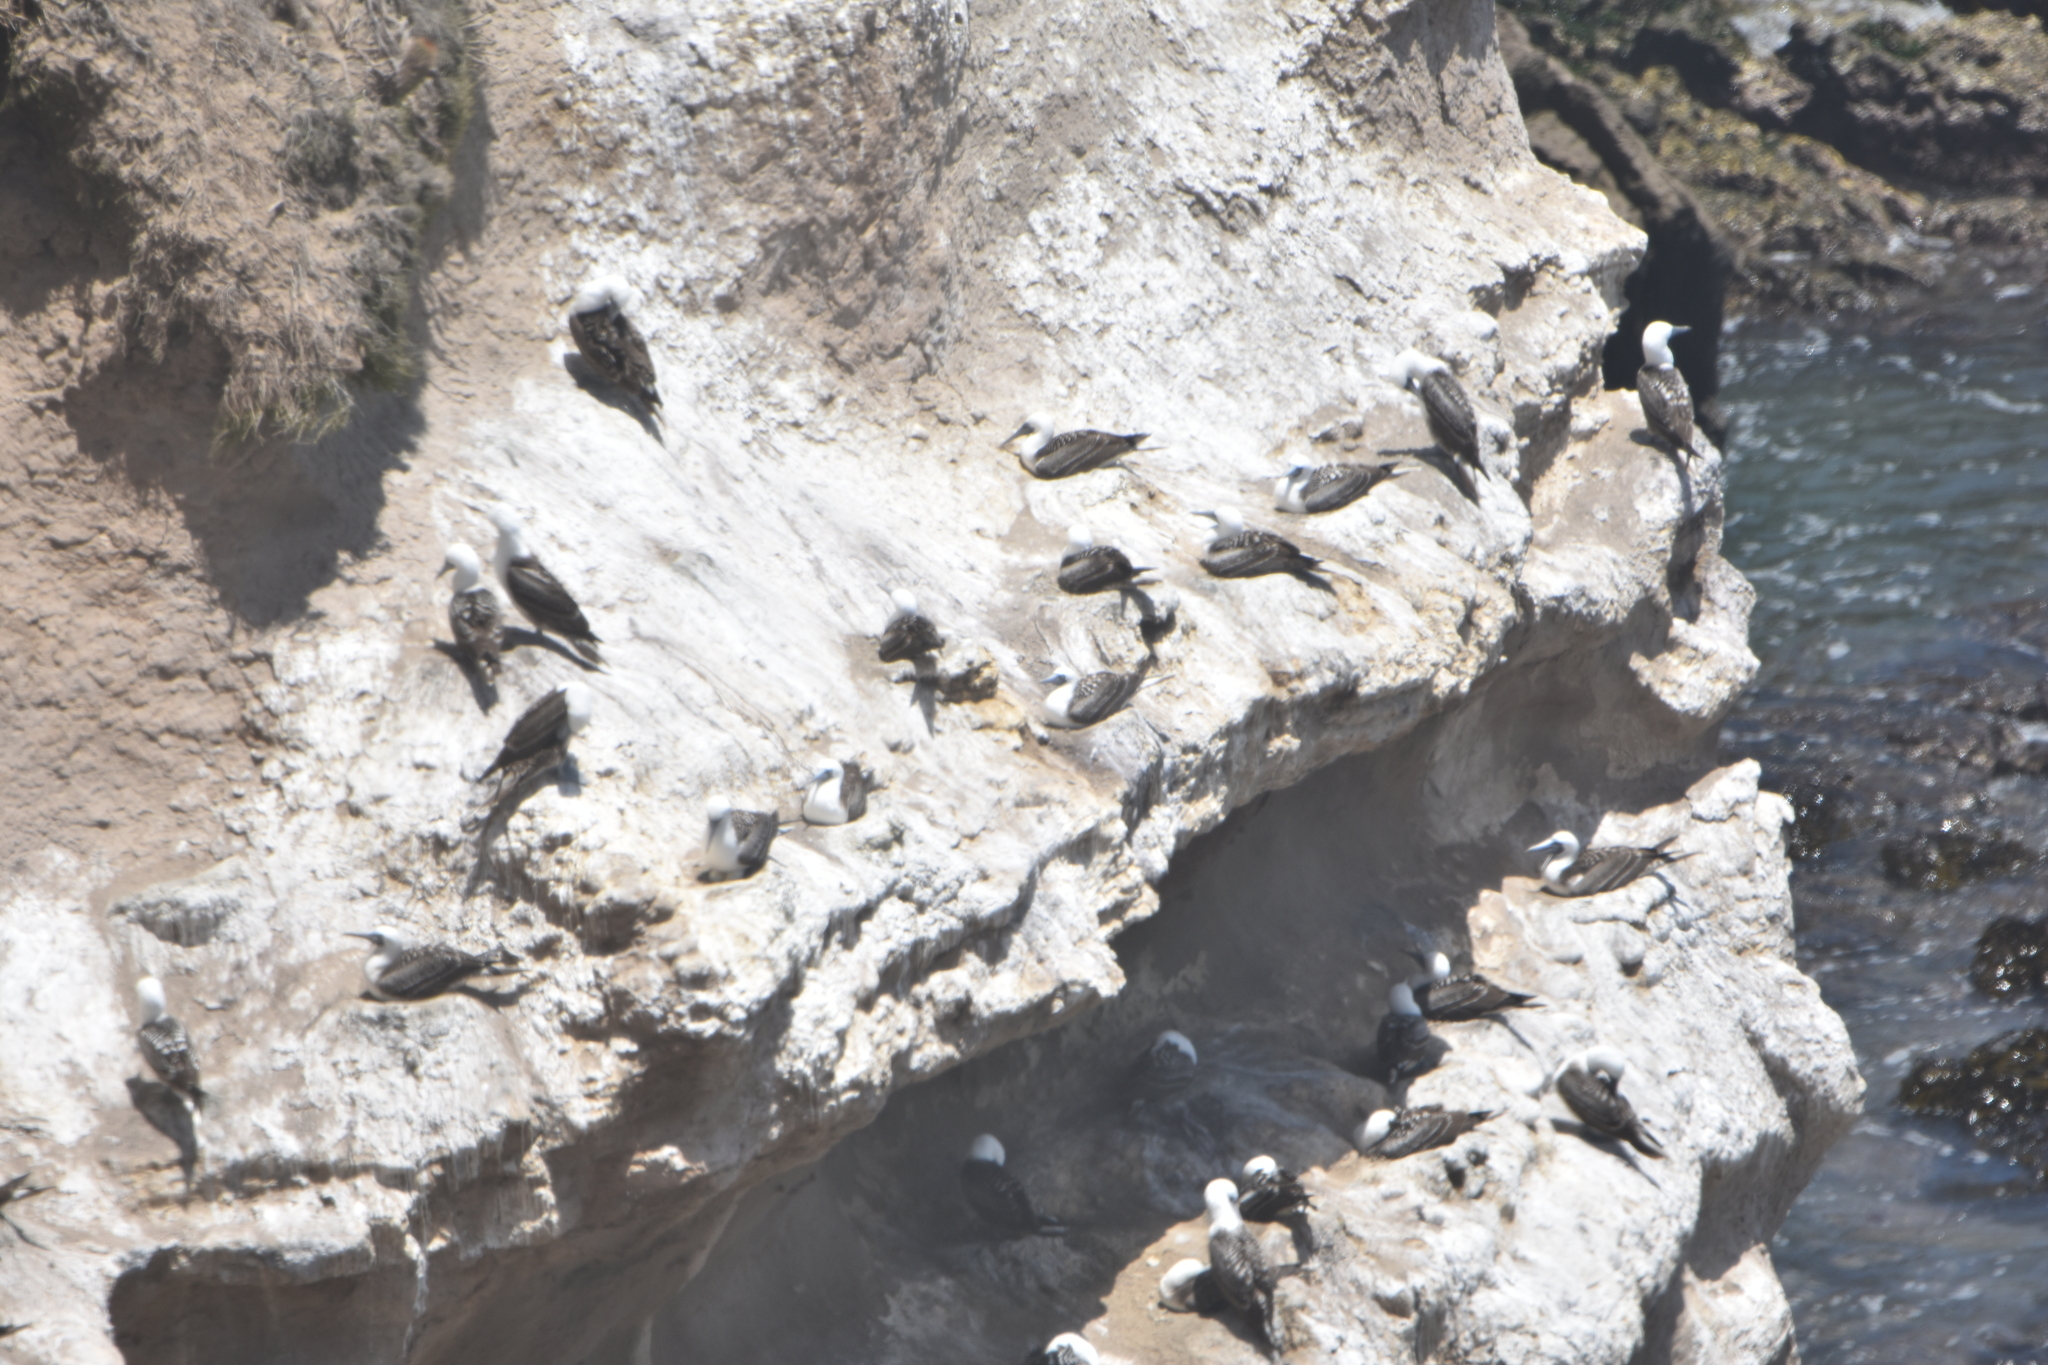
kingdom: Animalia
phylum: Chordata
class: Aves
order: Suliformes
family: Sulidae
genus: Sula
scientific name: Sula variegata
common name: Peruvian booby
